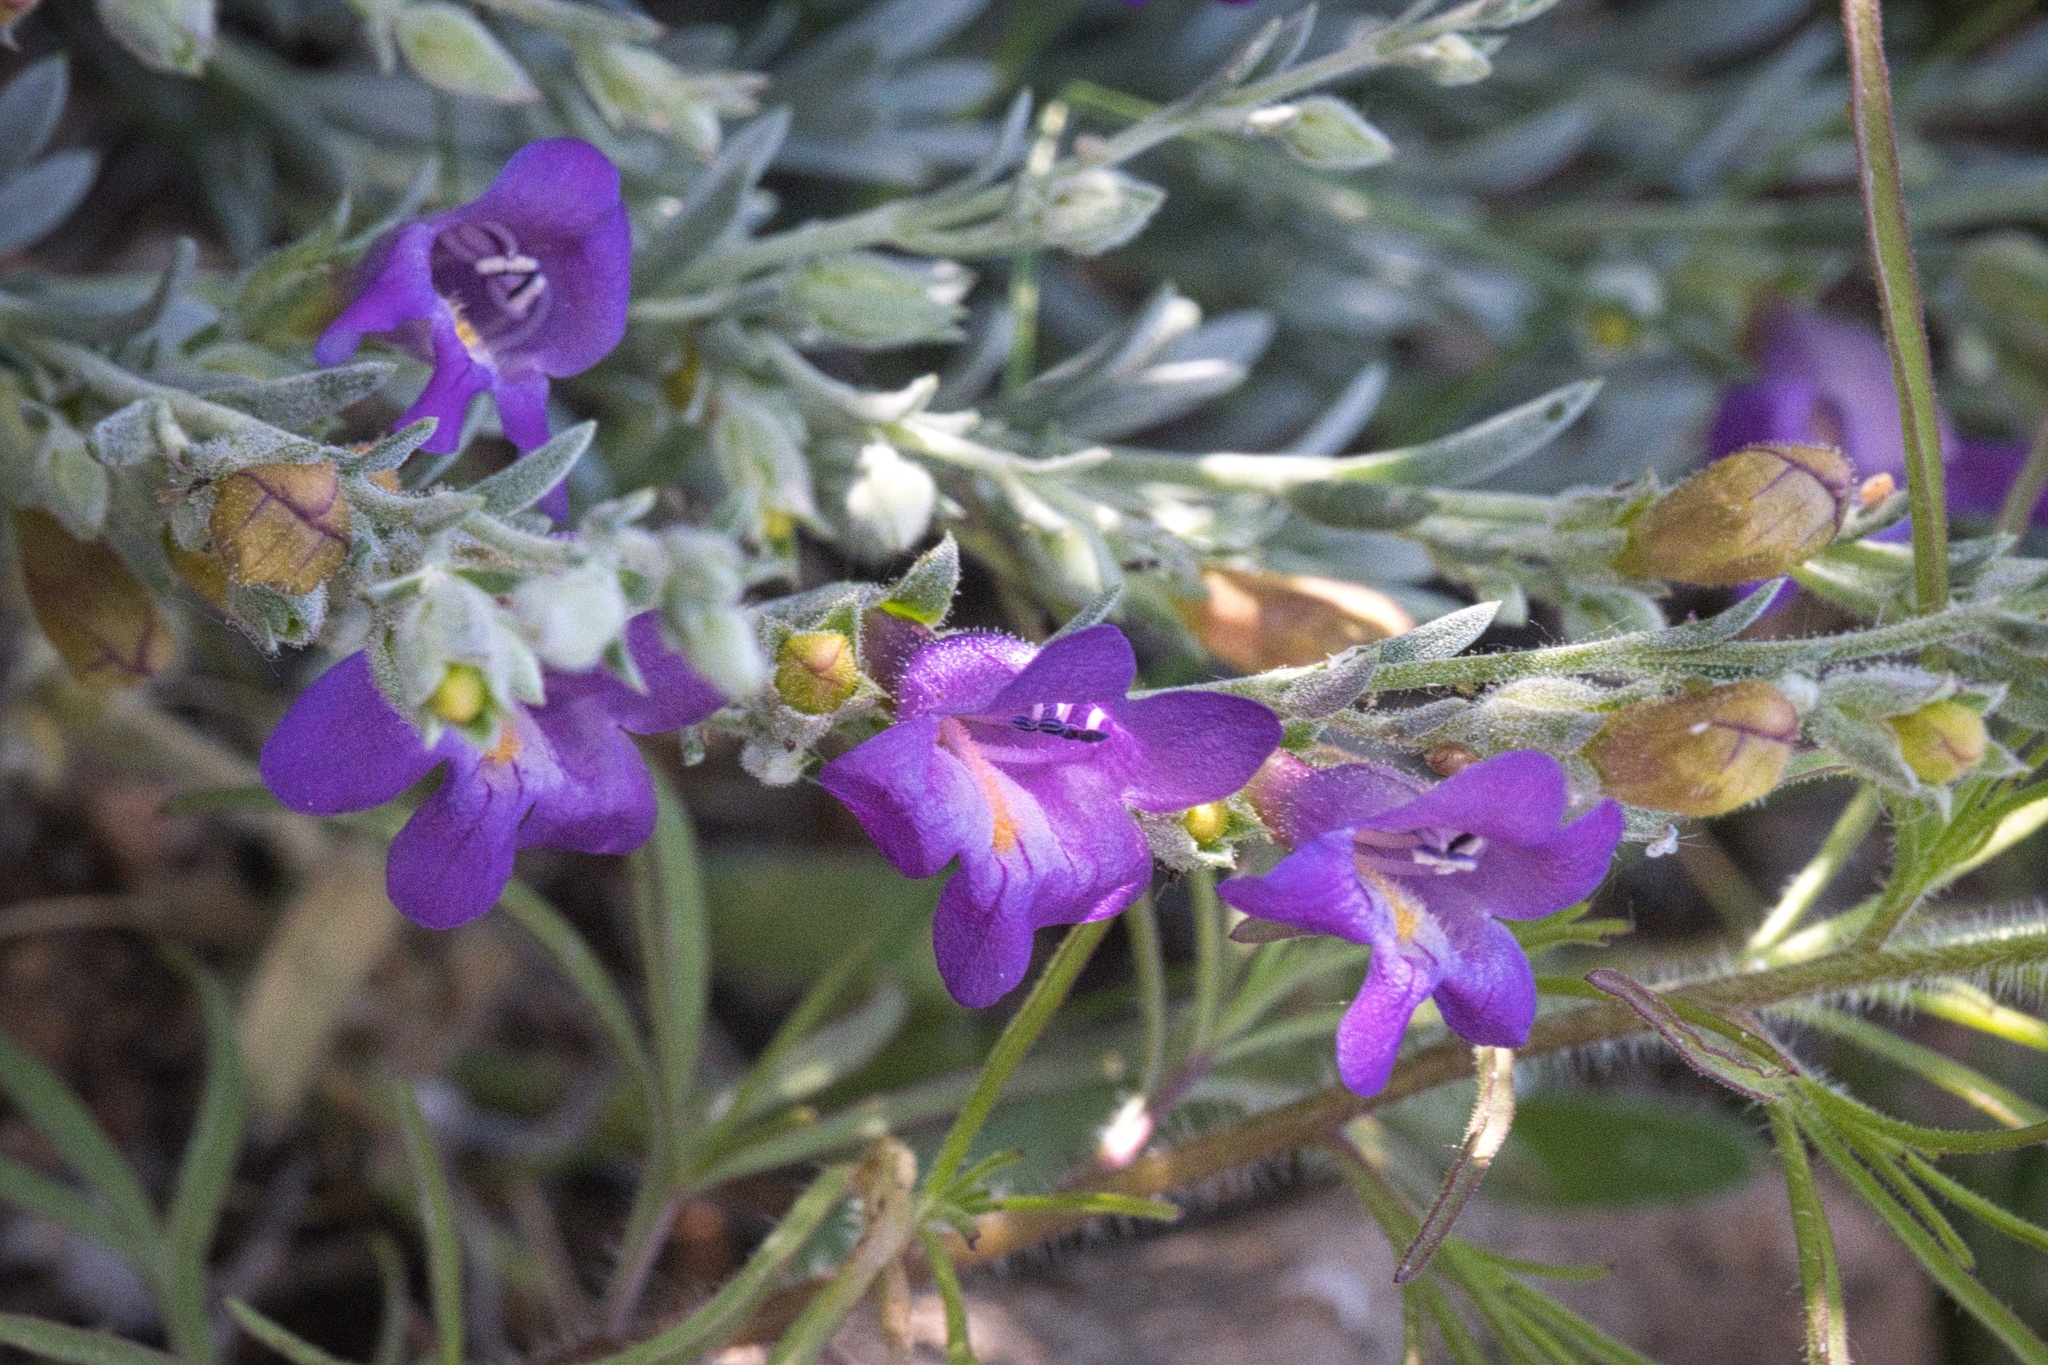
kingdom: Plantae
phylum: Tracheophyta
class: Magnoliopsida
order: Lamiales
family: Plantaginaceae
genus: Penstemon
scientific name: Penstemon californicus
